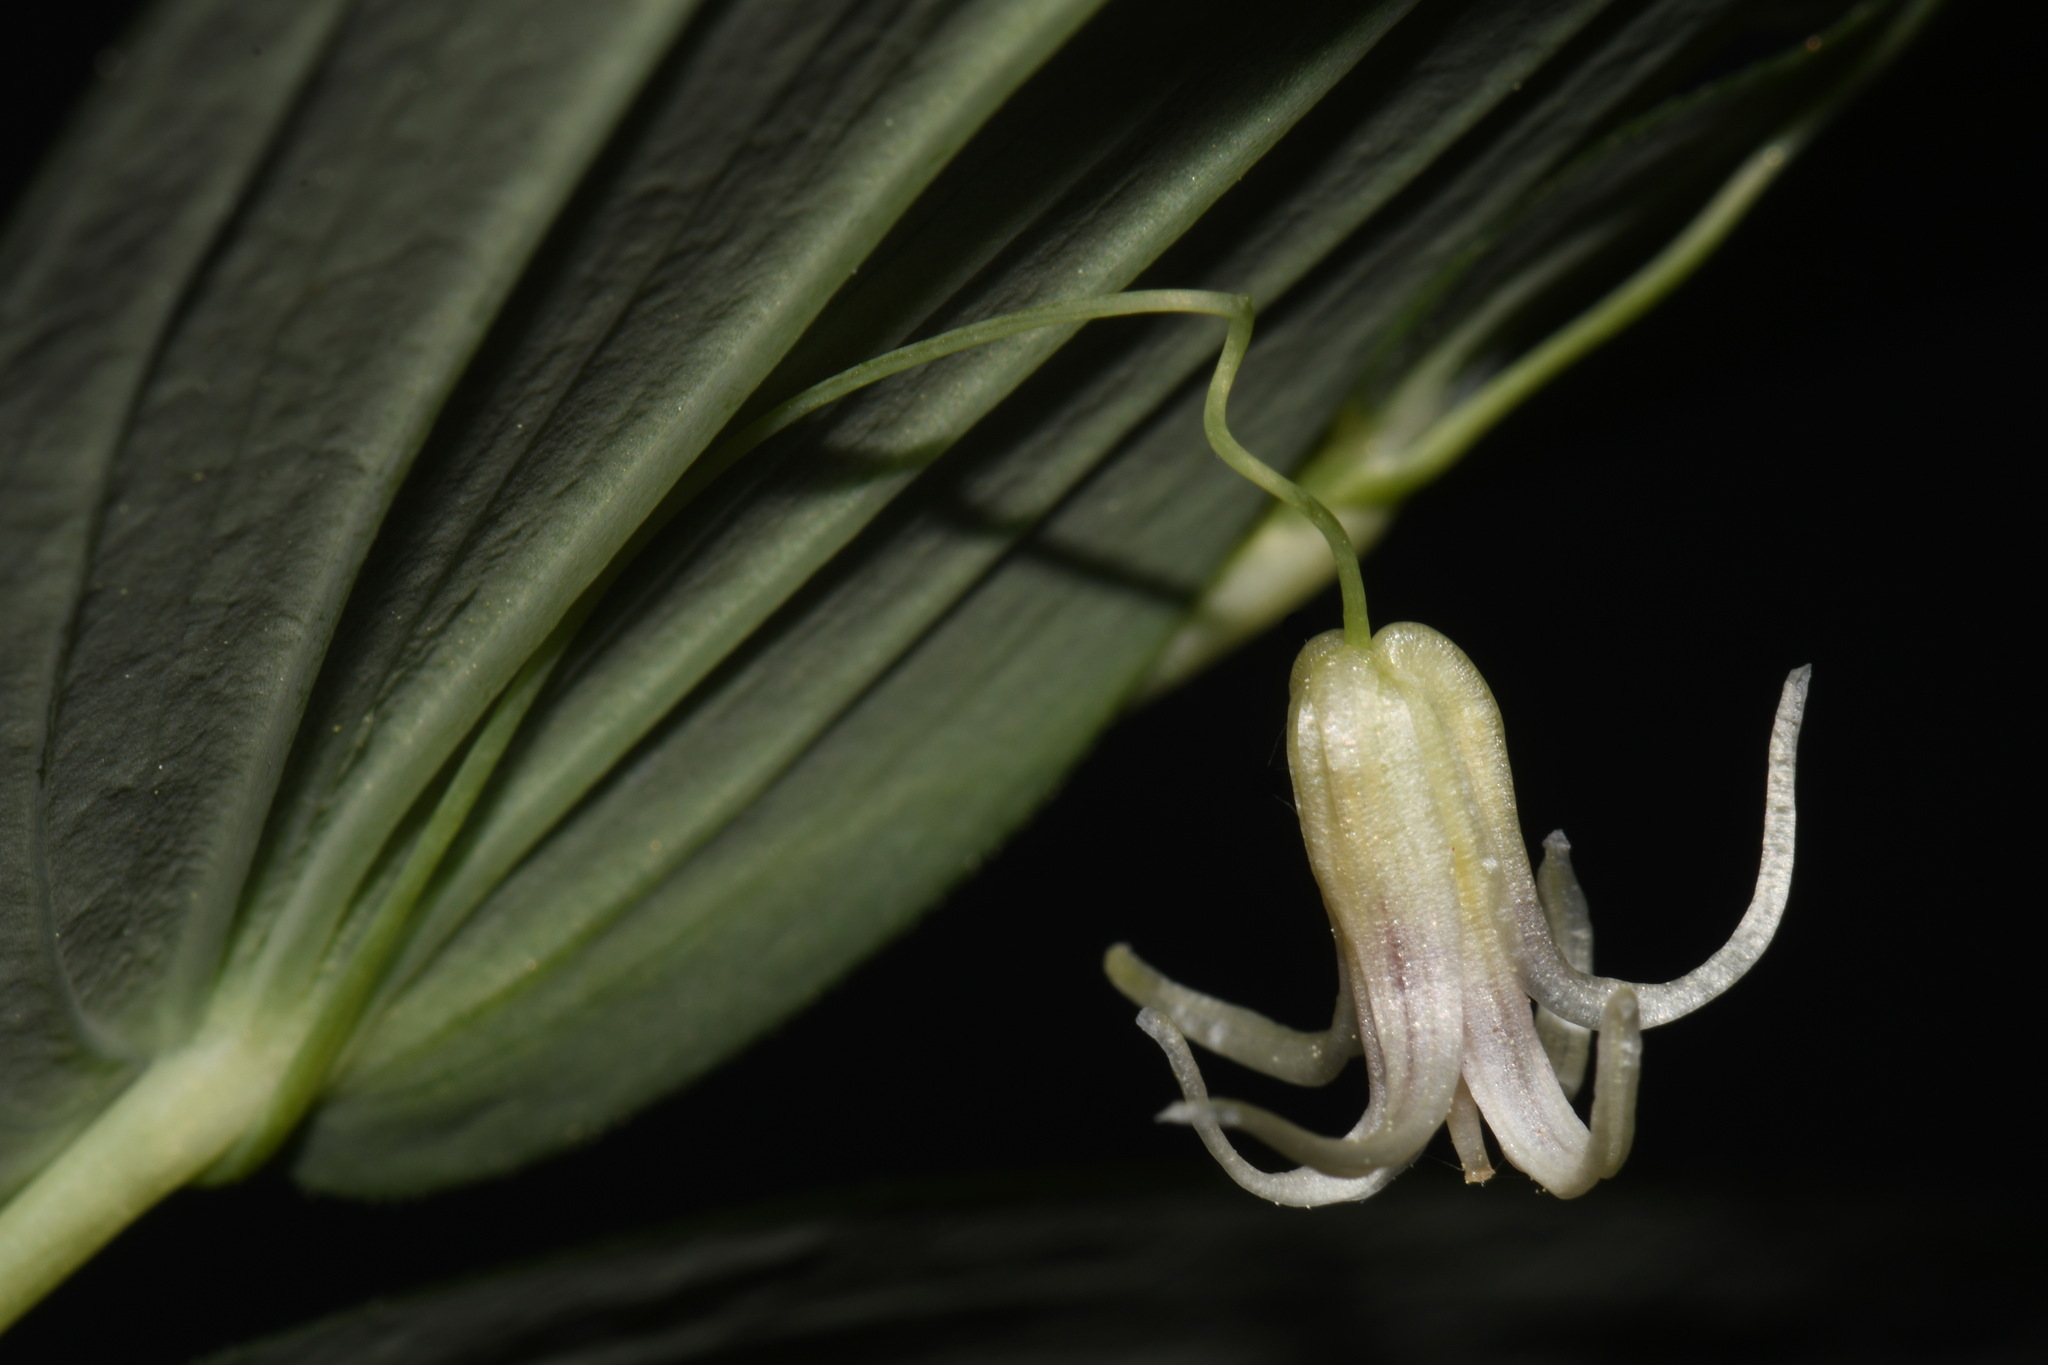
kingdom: Plantae
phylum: Tracheophyta
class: Liliopsida
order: Liliales
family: Liliaceae
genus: Streptopus
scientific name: Streptopus amplexifolius
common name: Clasp twisted stalk
